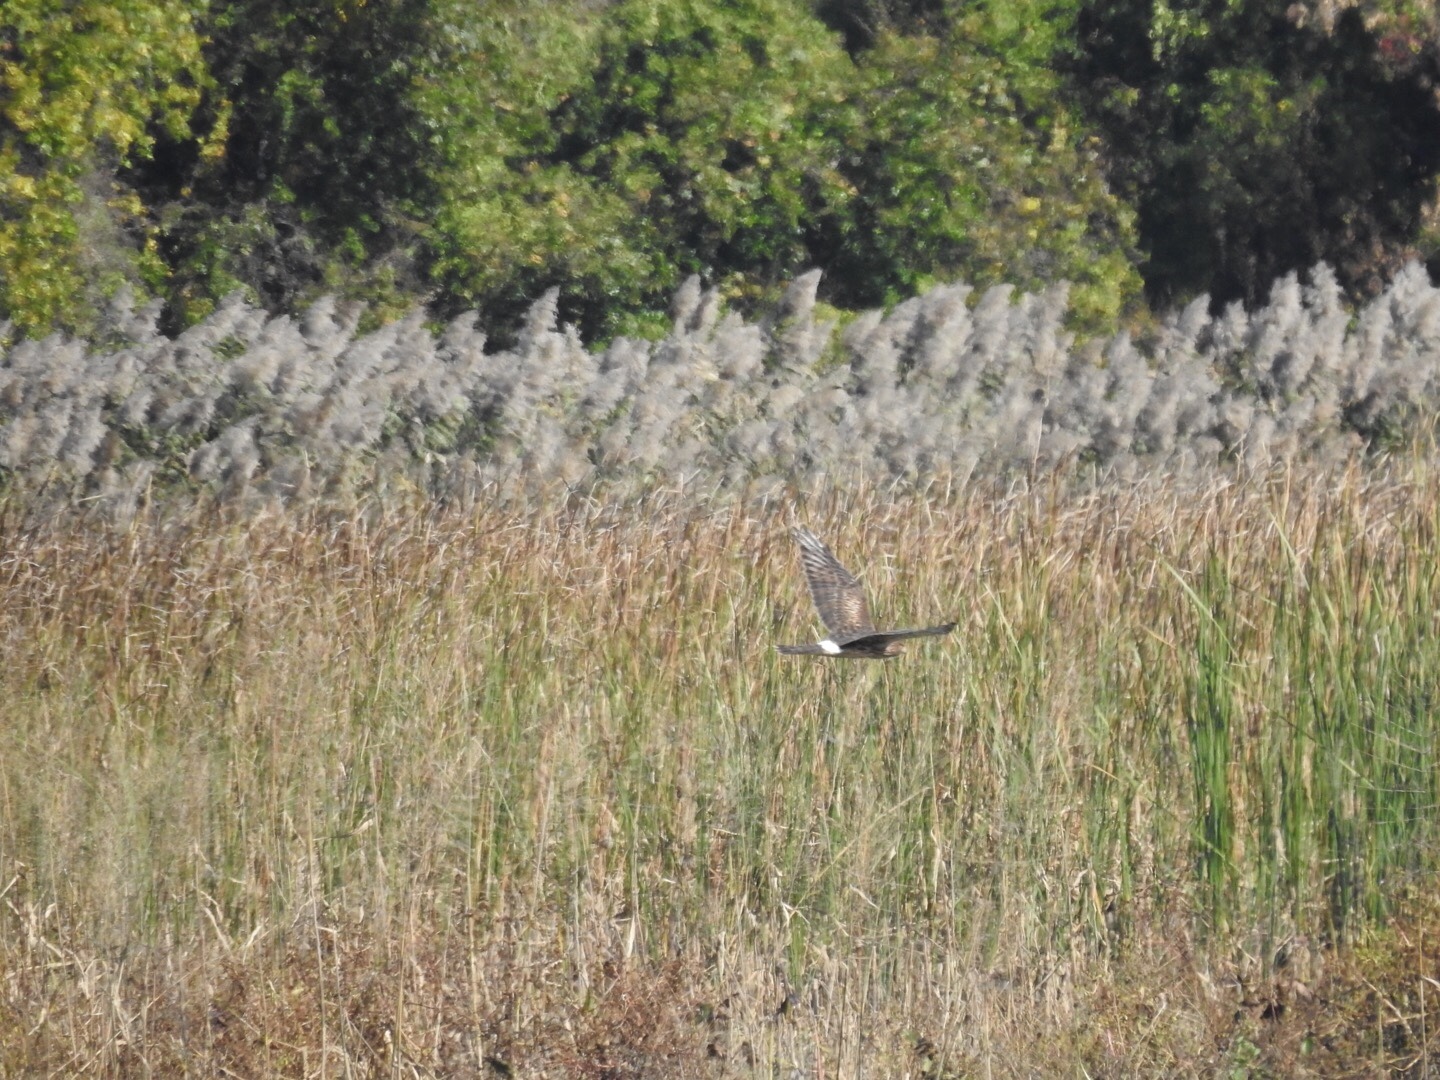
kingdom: Animalia
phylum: Chordata
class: Aves
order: Accipitriformes
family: Accipitridae
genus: Circus
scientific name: Circus cyaneus
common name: Hen harrier
